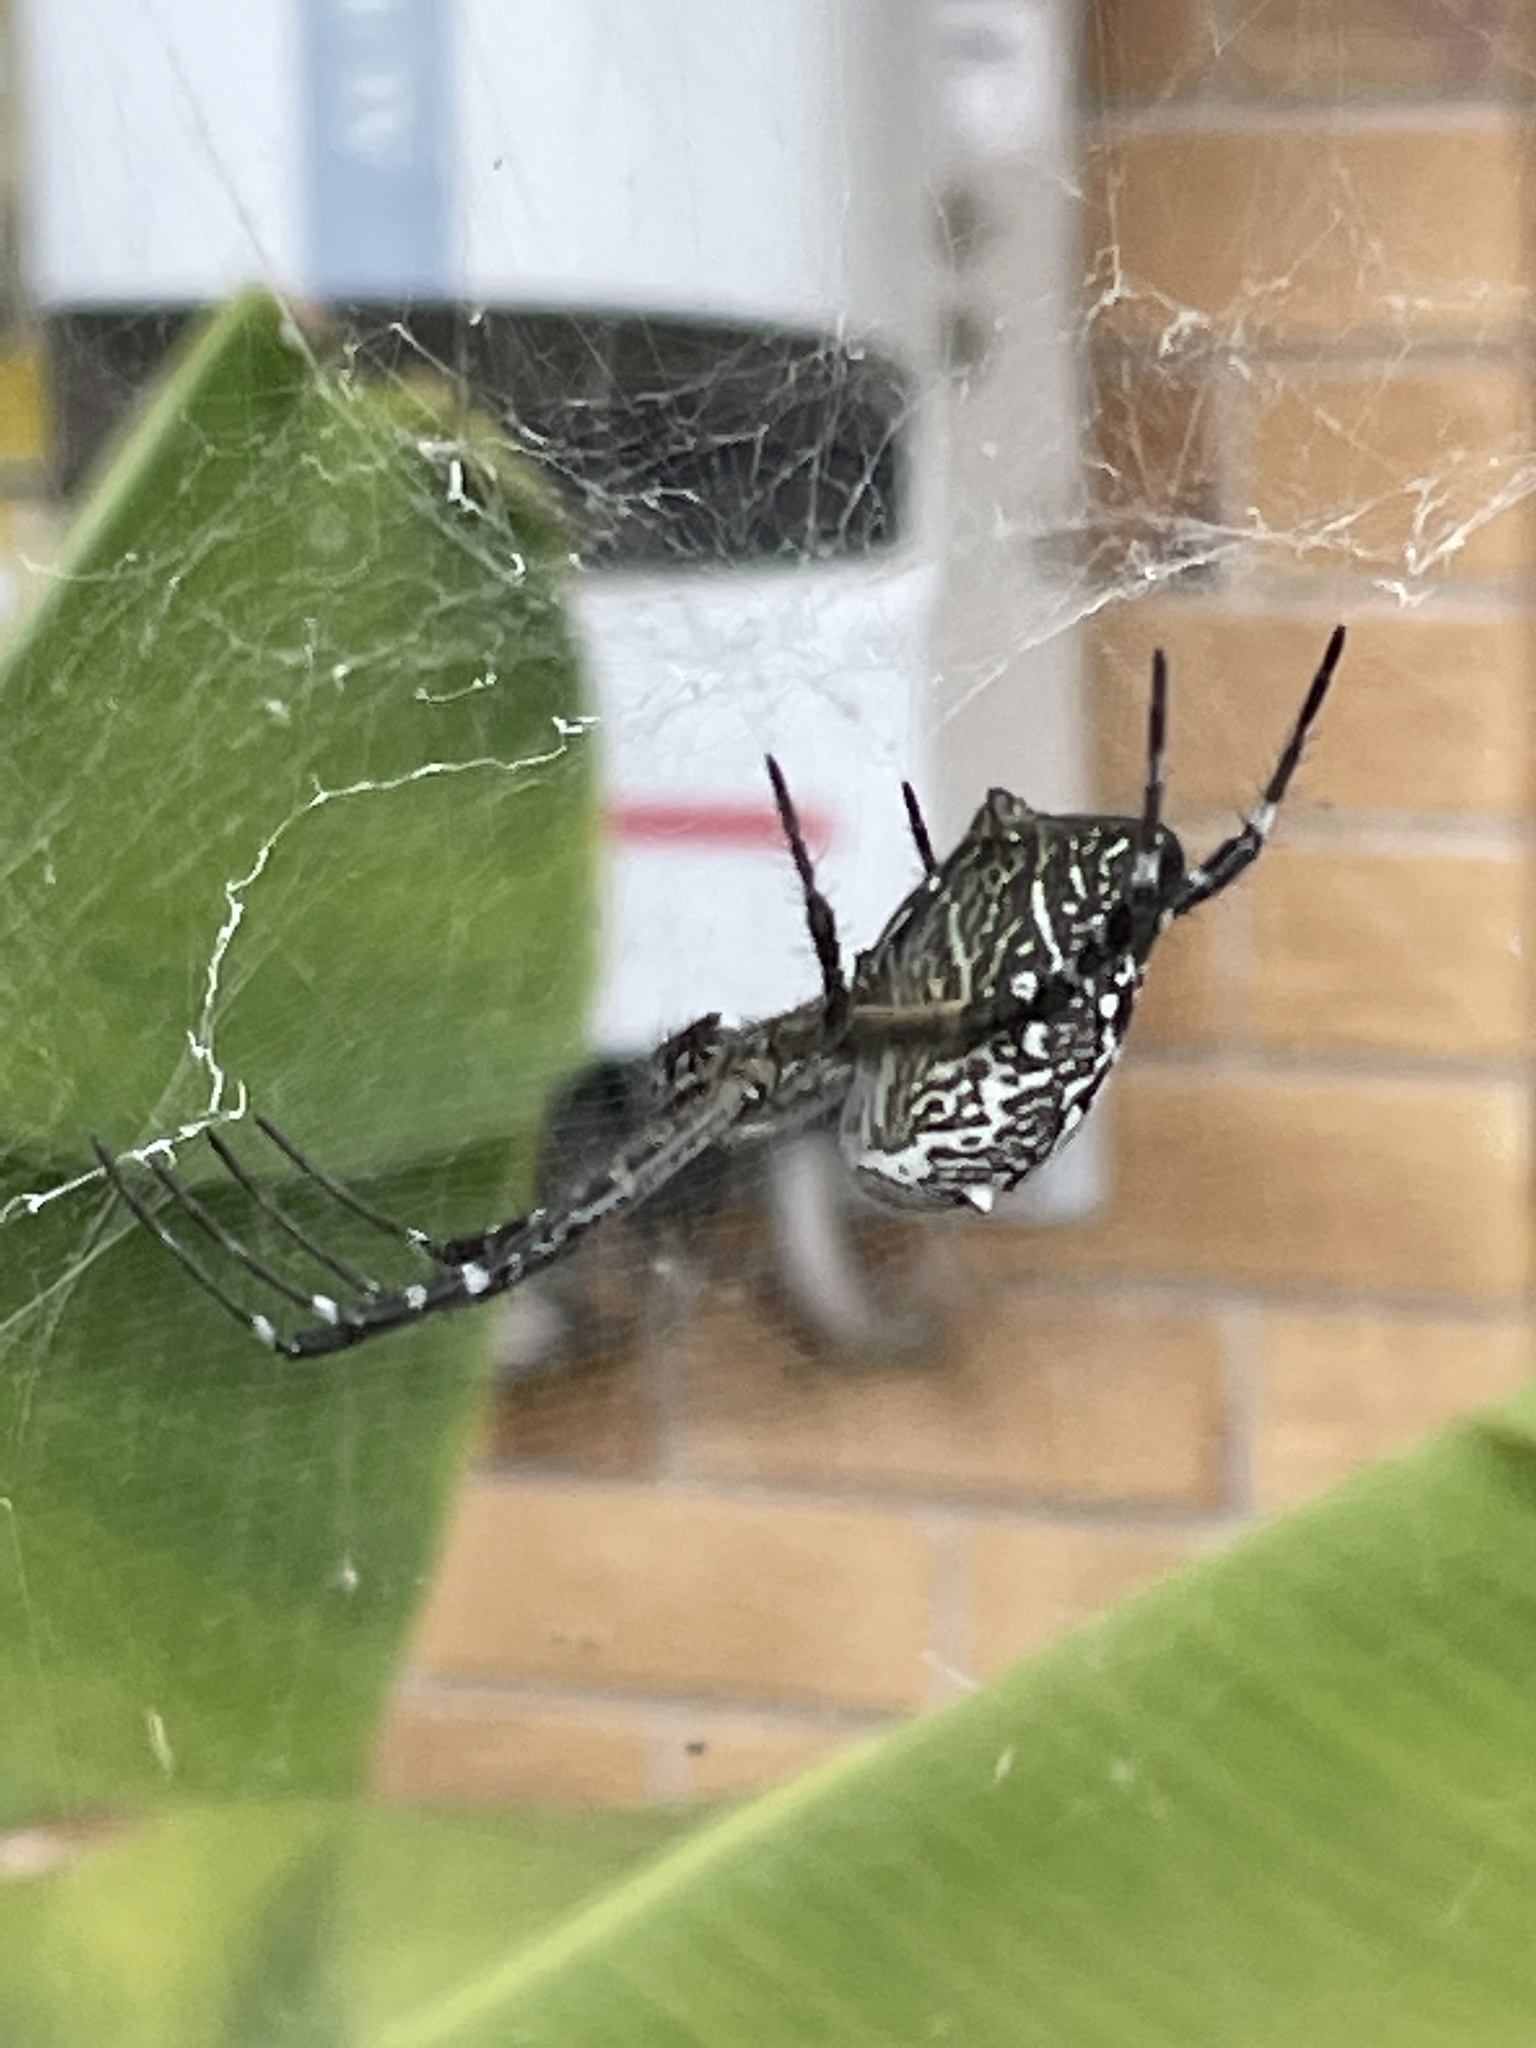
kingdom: Chromista
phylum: Ochrophyta
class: Dictyochophyceae
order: Pedinellales
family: Cyrtophoraceae
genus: Cyrtophora
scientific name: Cyrtophora moluccensis
